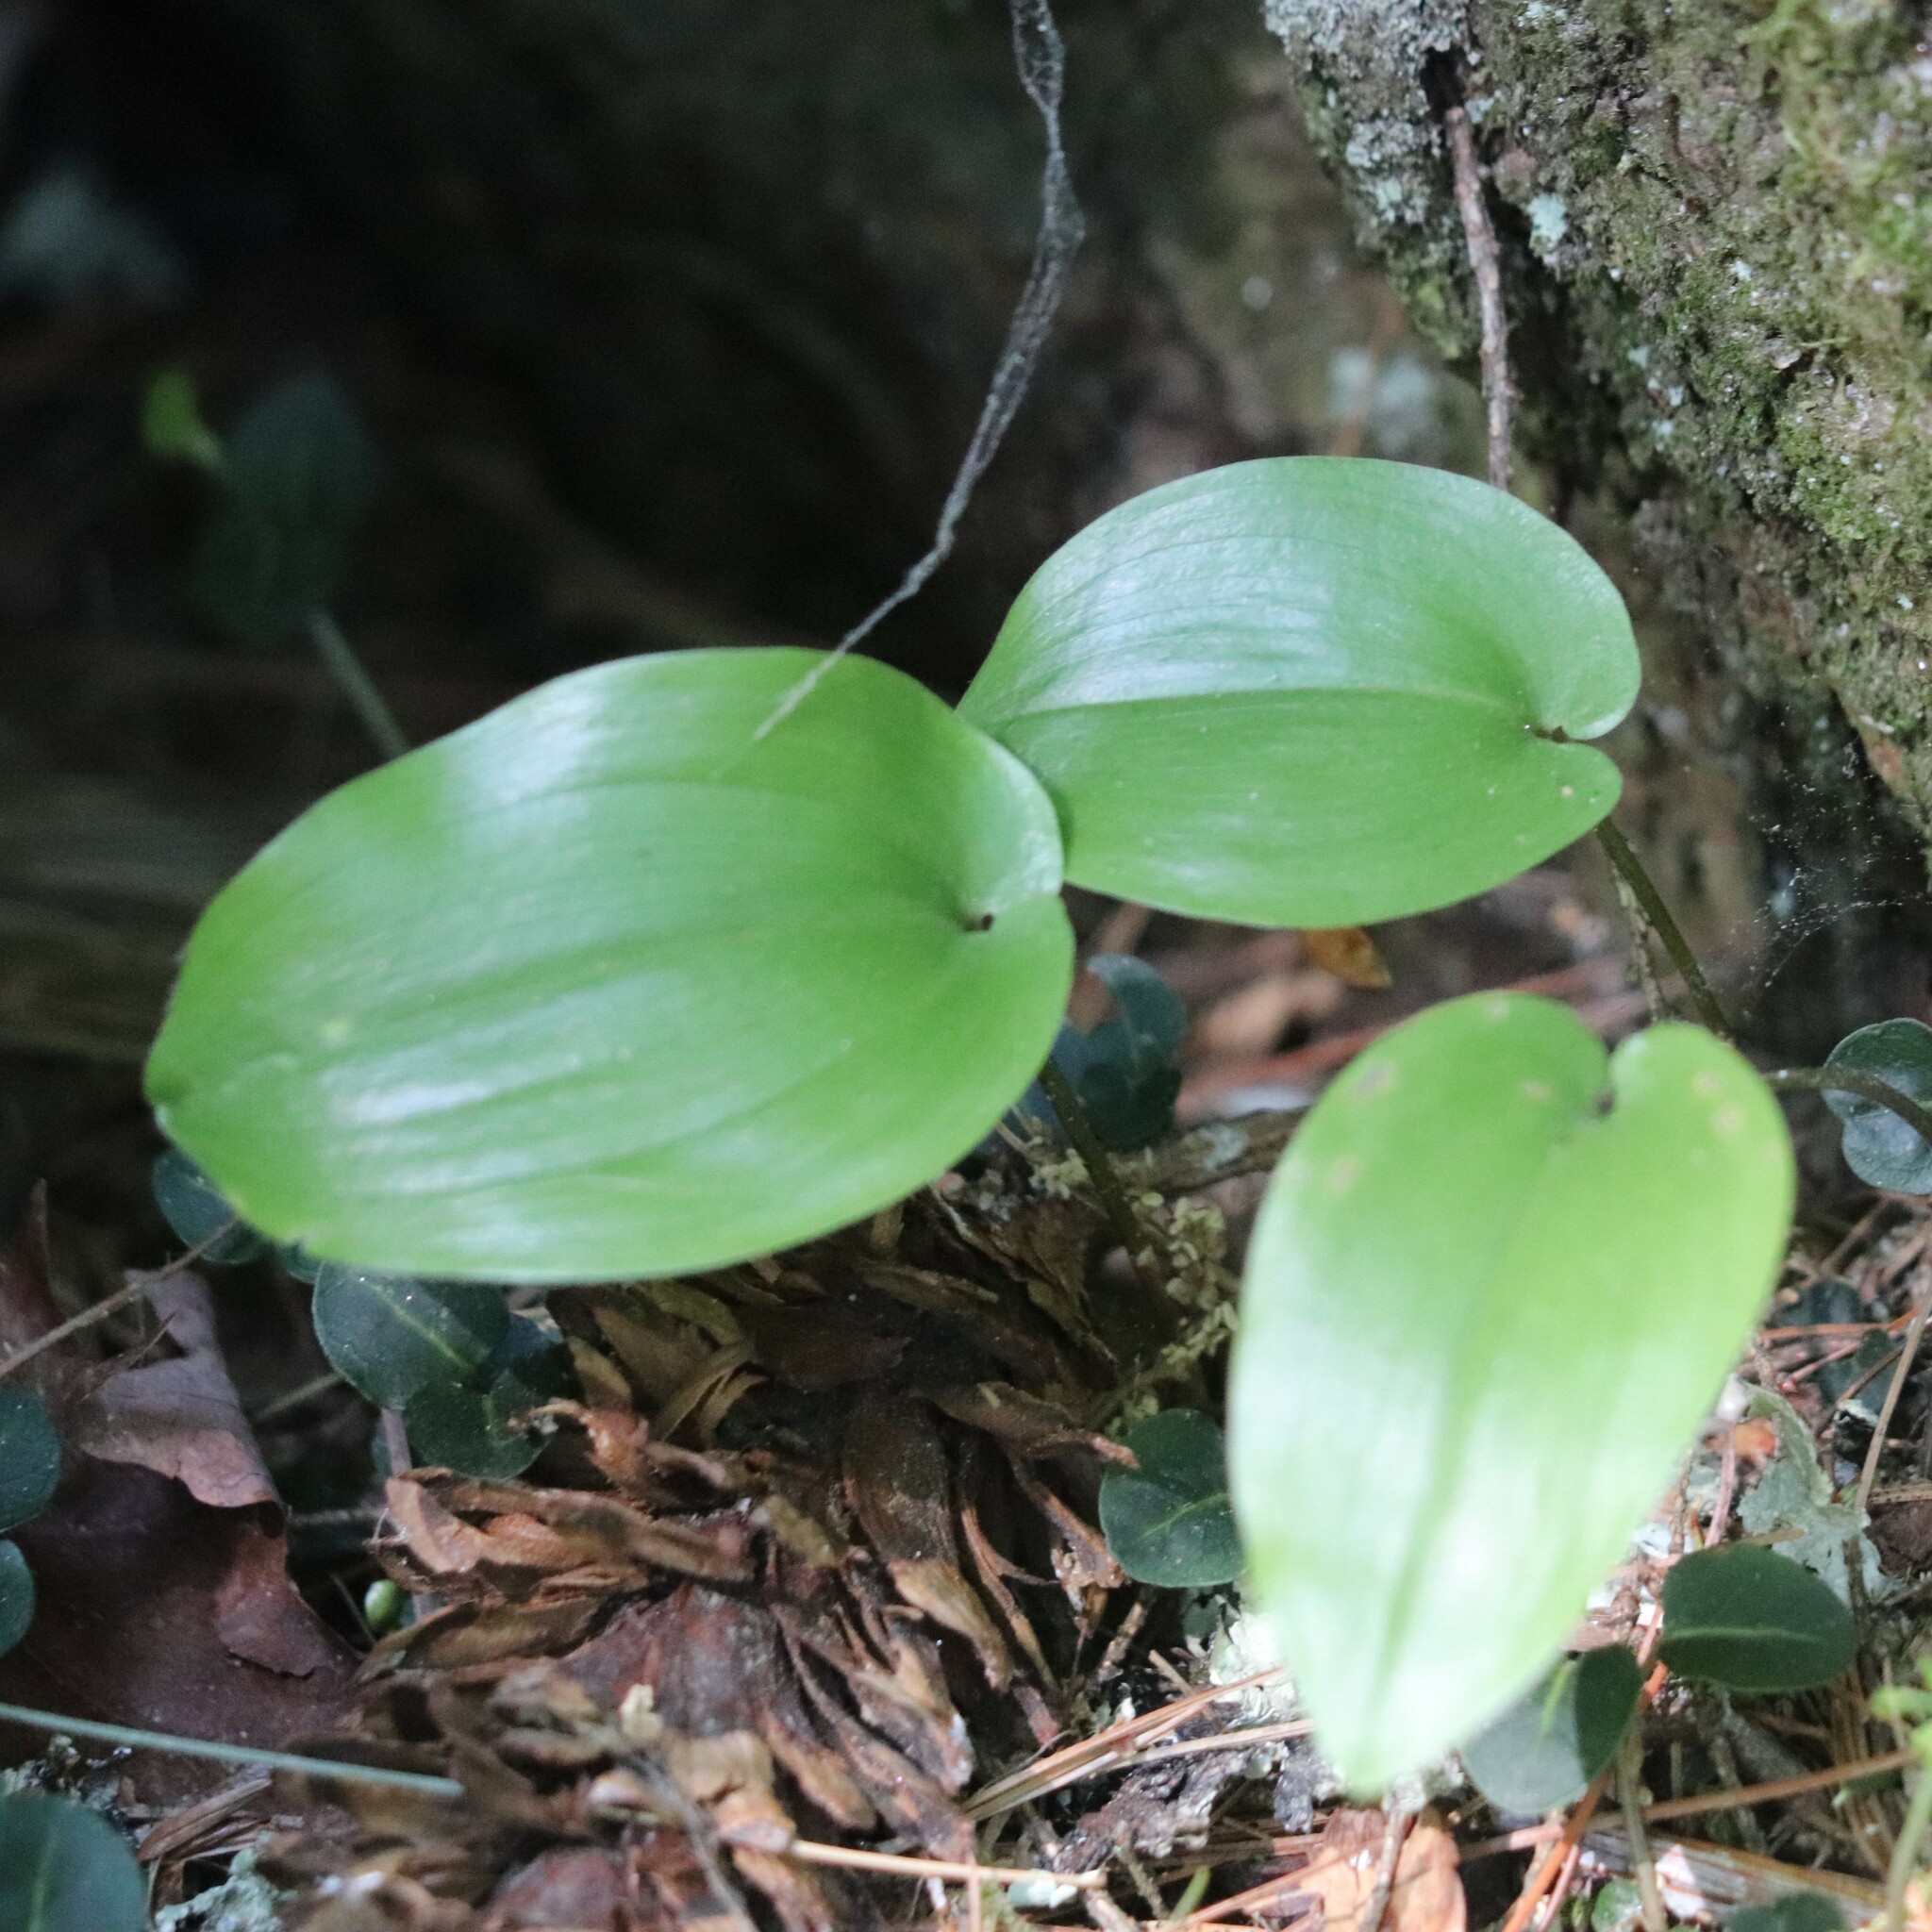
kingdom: Plantae
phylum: Tracheophyta
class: Liliopsida
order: Asparagales
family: Asparagaceae
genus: Maianthemum
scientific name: Maianthemum canadense
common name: False lily-of-the-valley
